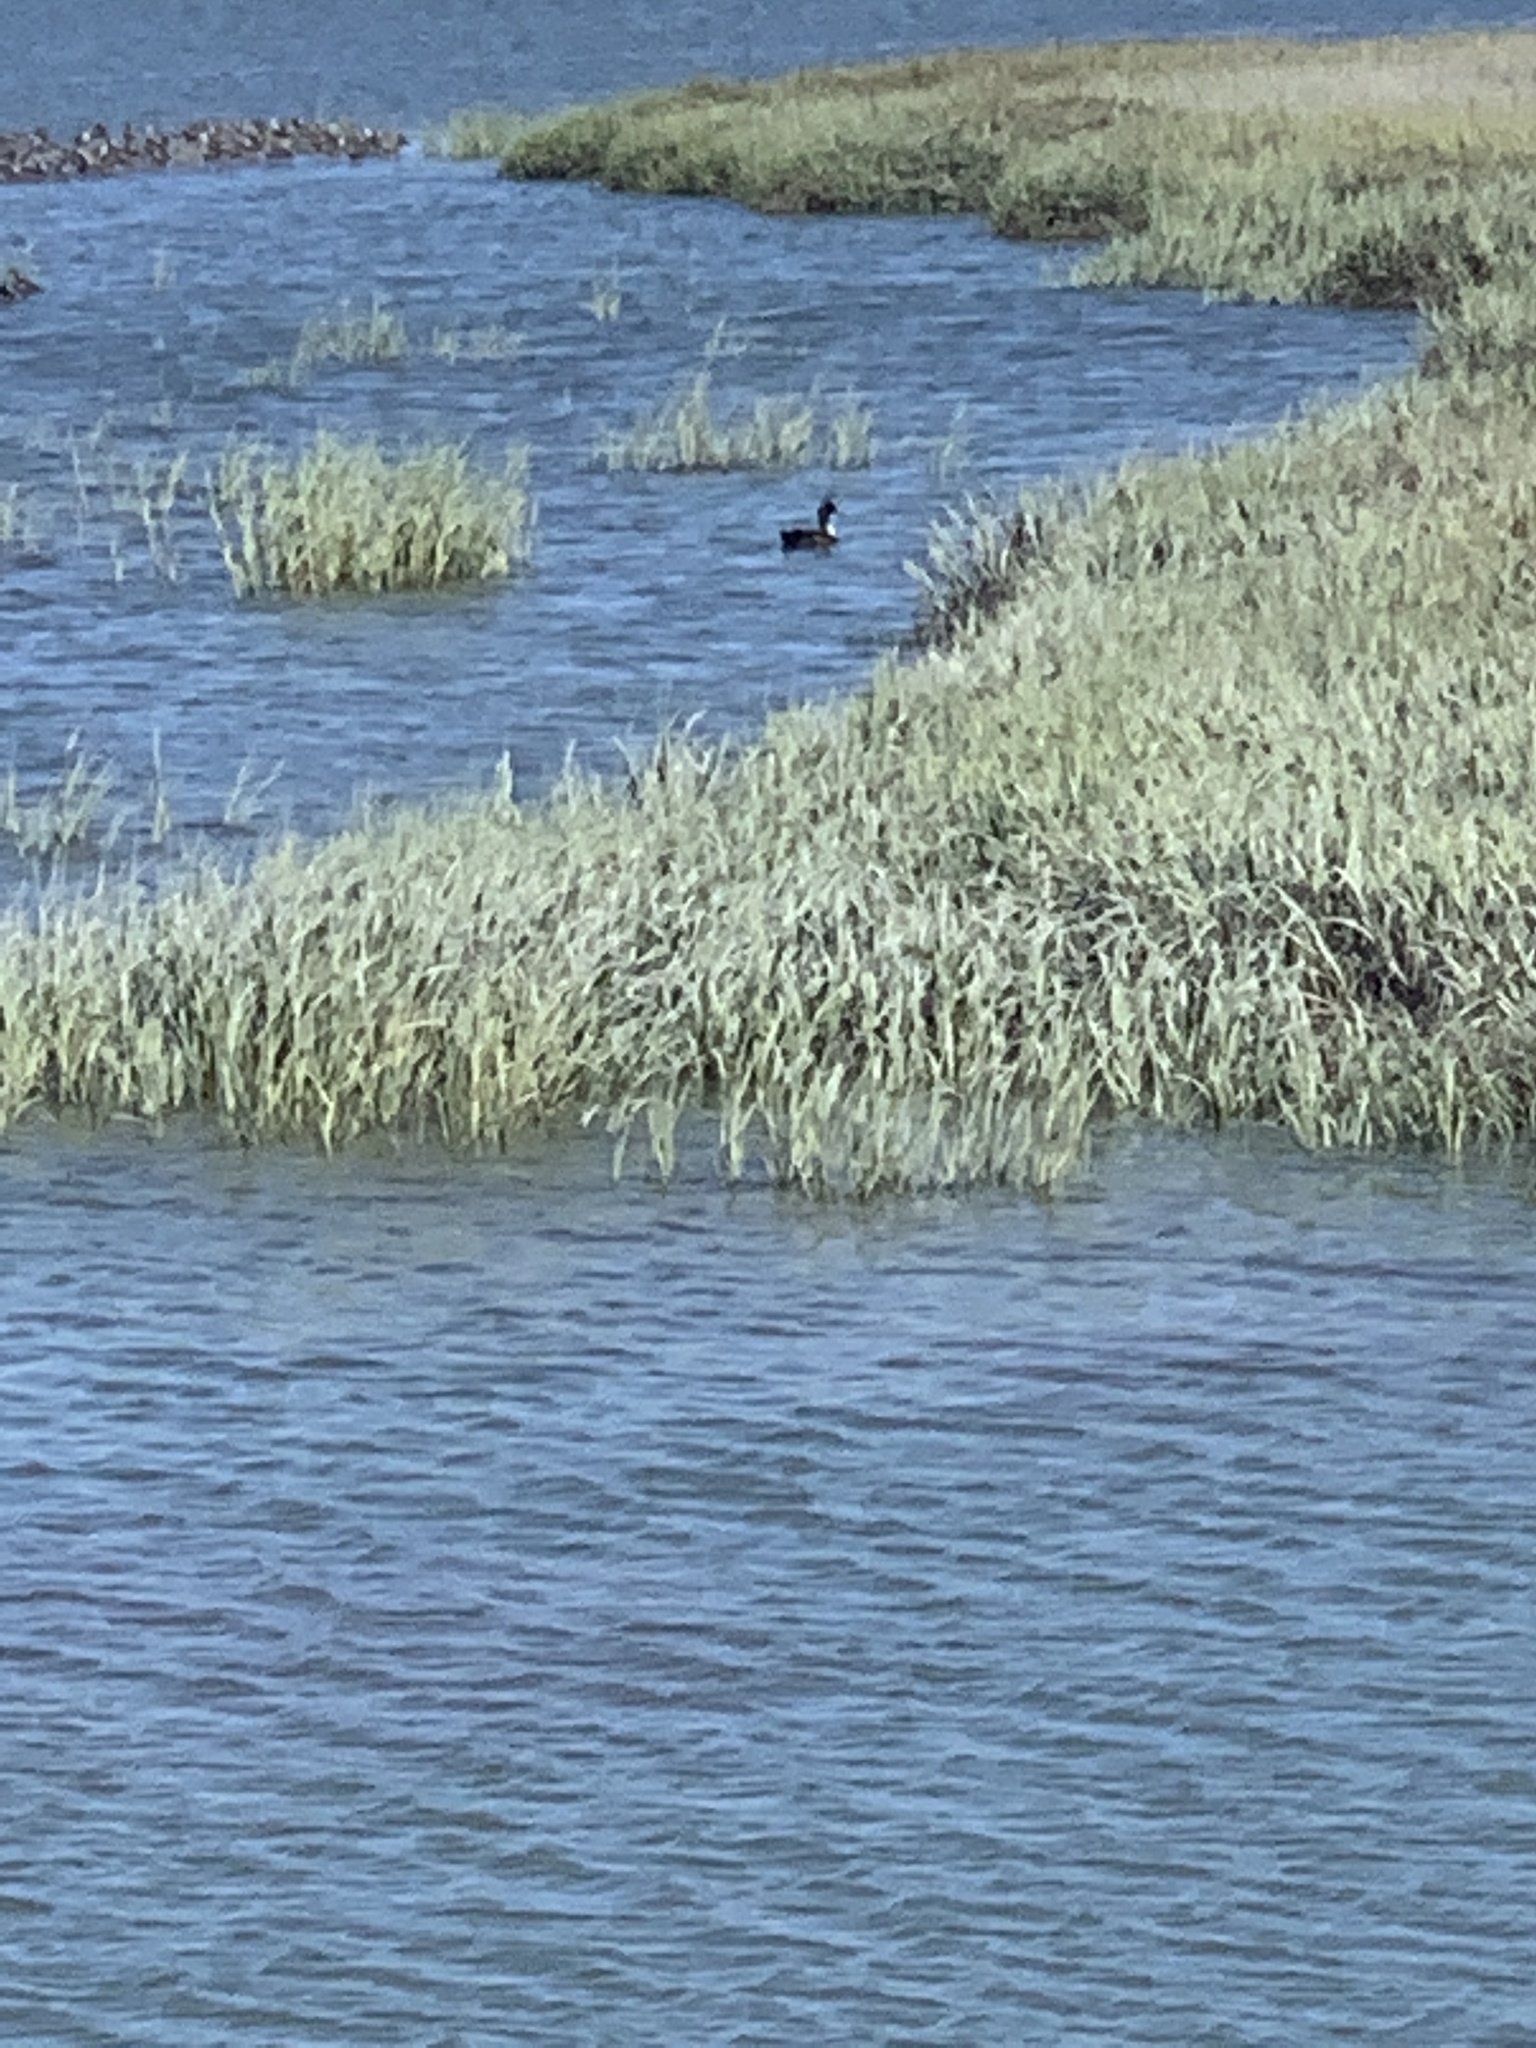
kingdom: Animalia
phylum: Chordata
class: Aves
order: Podicipediformes
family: Podicipedidae
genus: Aechmophorus
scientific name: Aechmophorus occidentalis
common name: Western grebe
